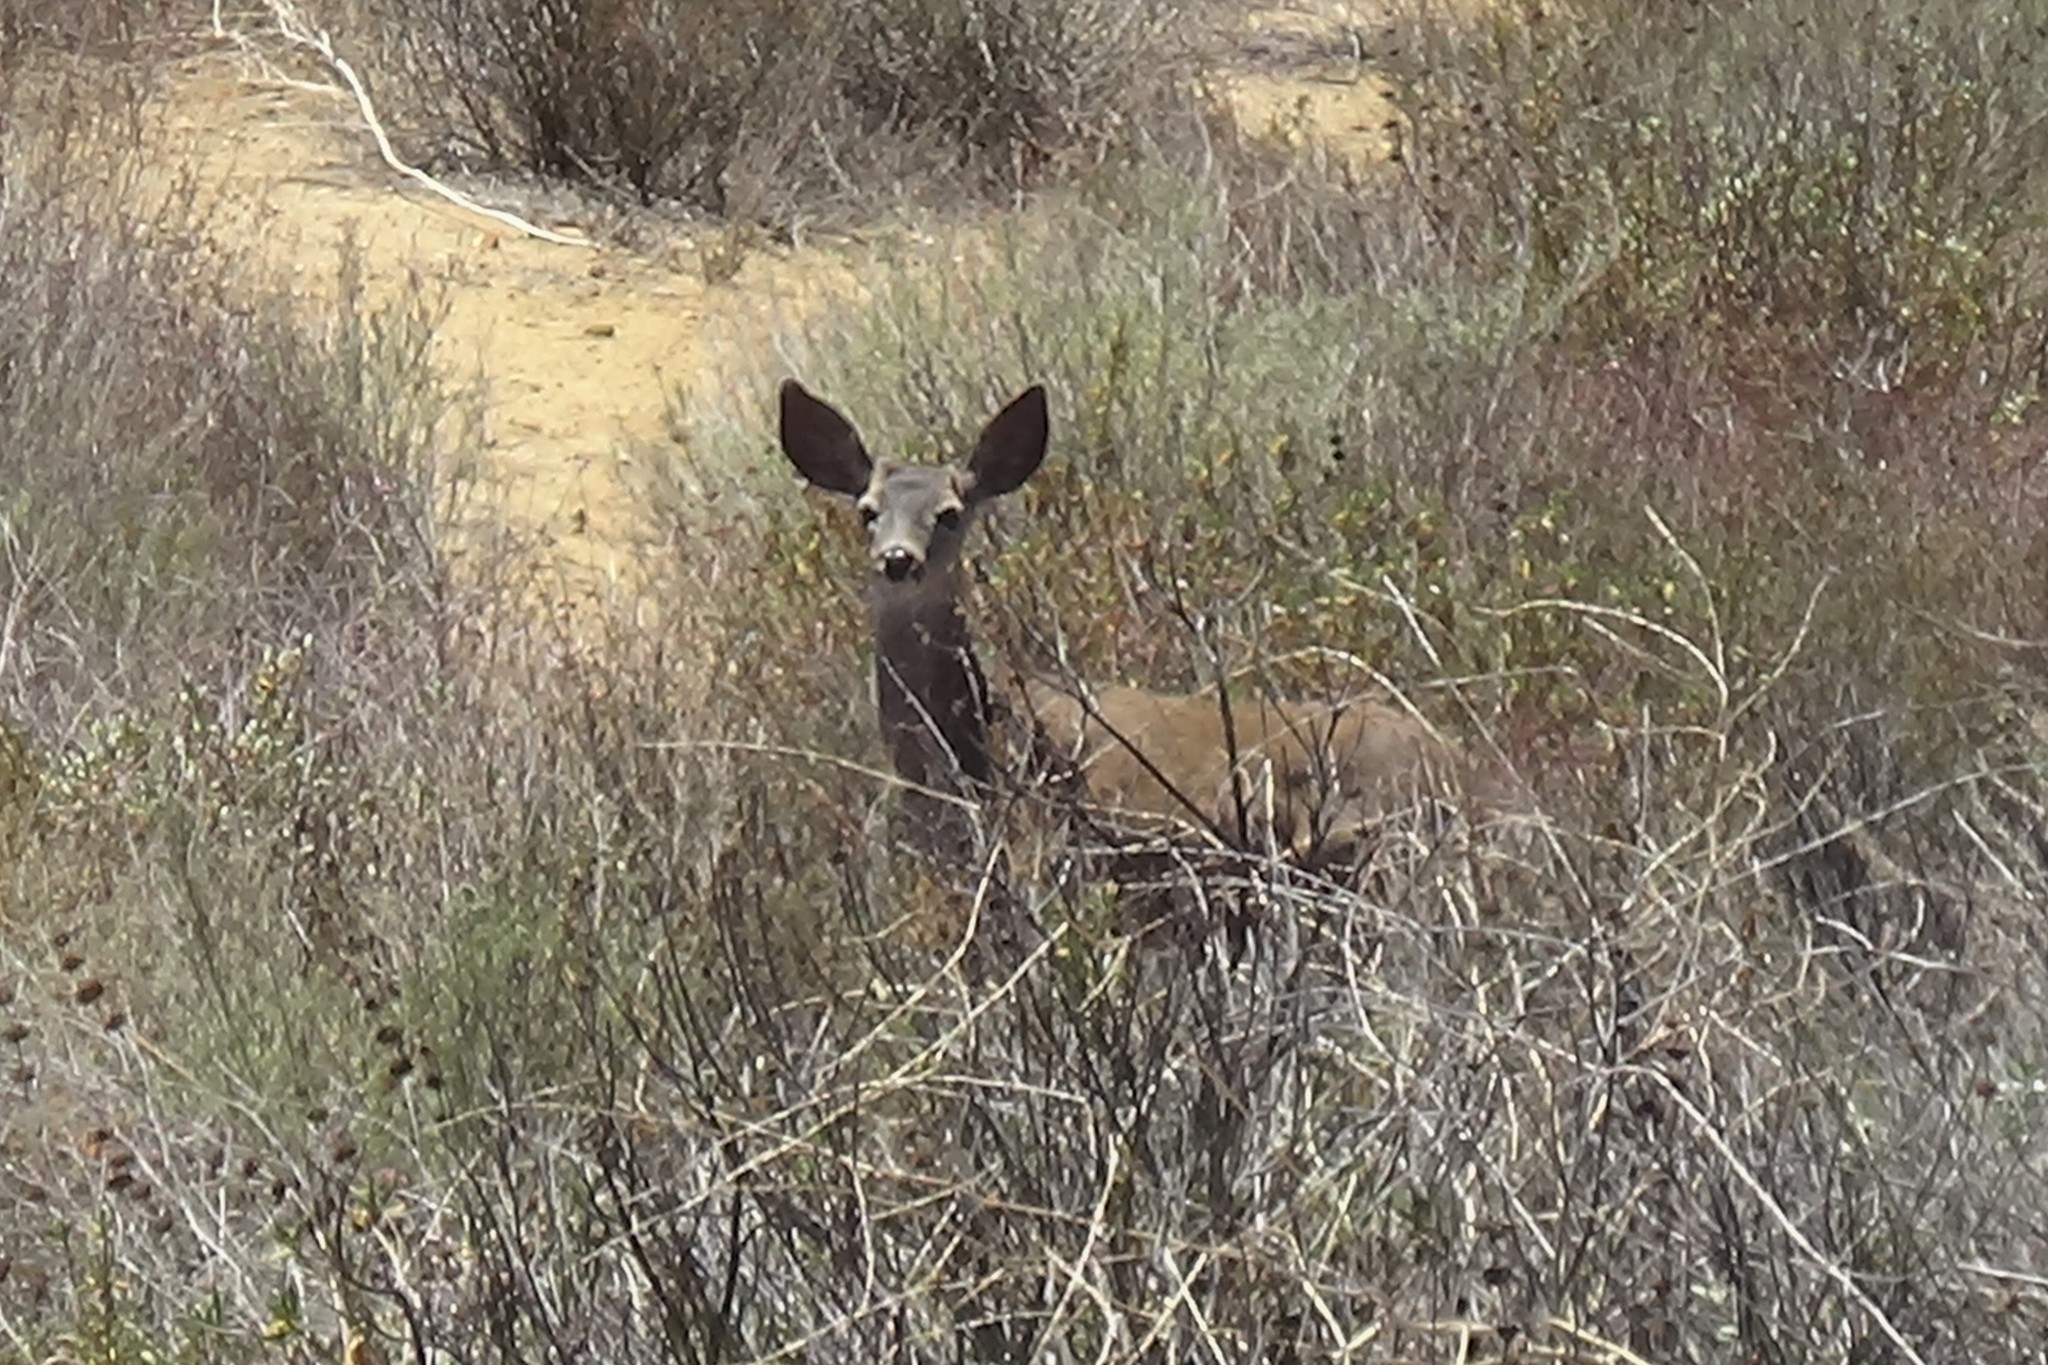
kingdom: Animalia
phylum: Chordata
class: Mammalia
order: Artiodactyla
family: Cervidae
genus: Odocoileus
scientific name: Odocoileus hemionus
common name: Mule deer
